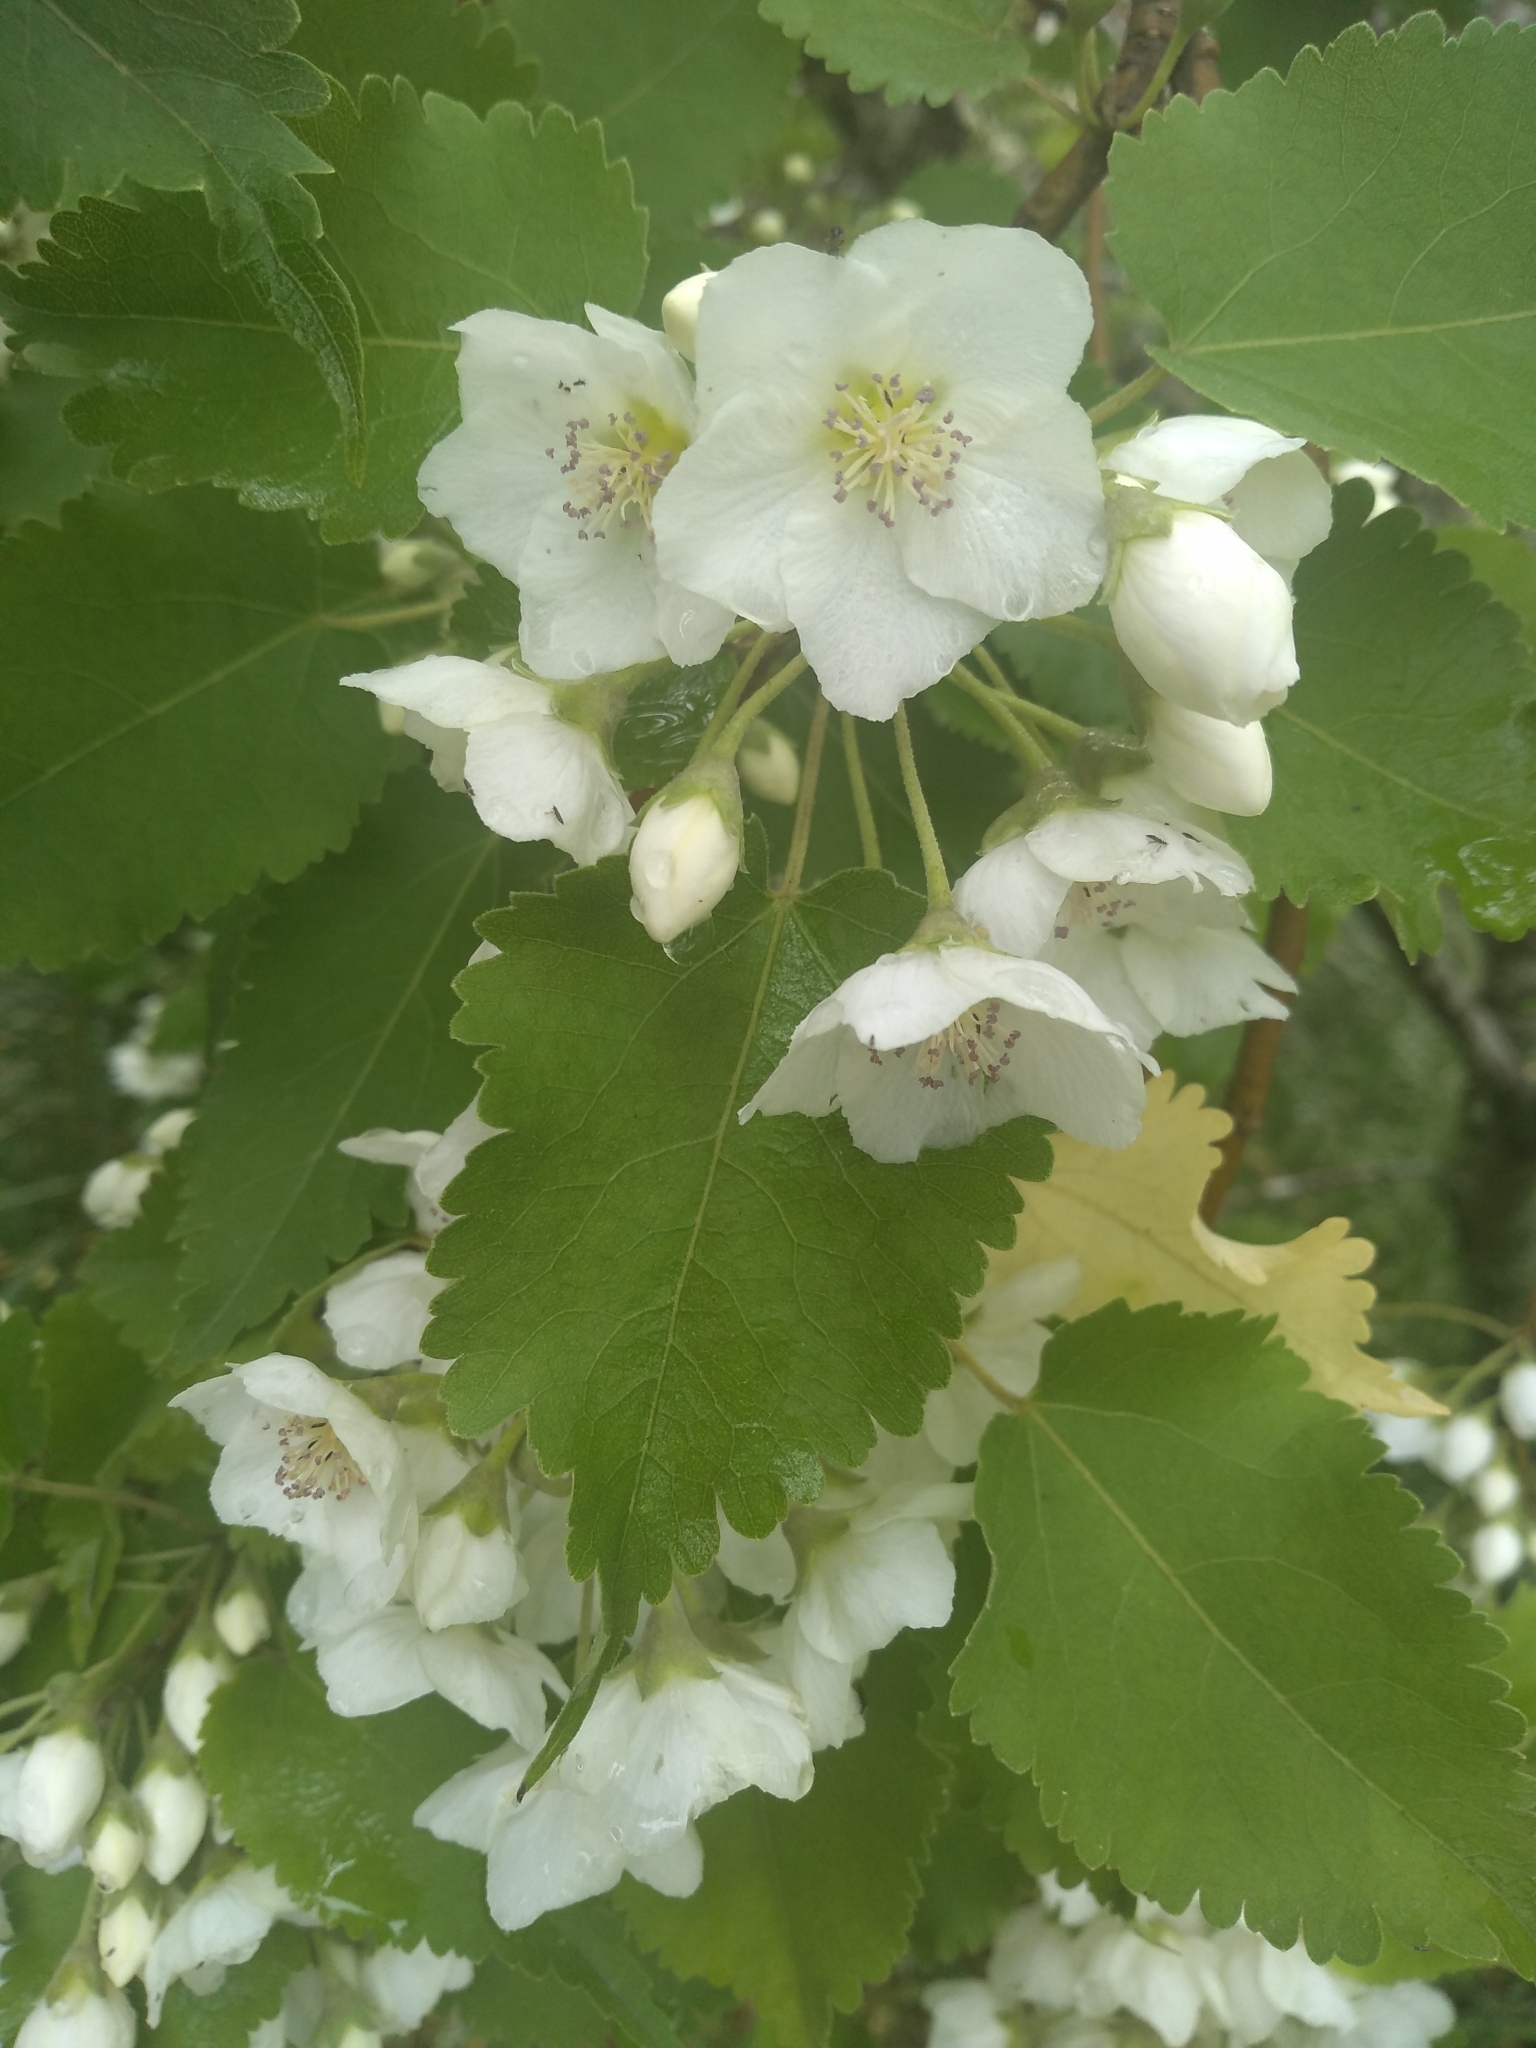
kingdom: Plantae
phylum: Tracheophyta
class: Magnoliopsida
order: Malvales
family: Malvaceae
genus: Hoheria
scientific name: Hoheria lyallii
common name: Lacebark
